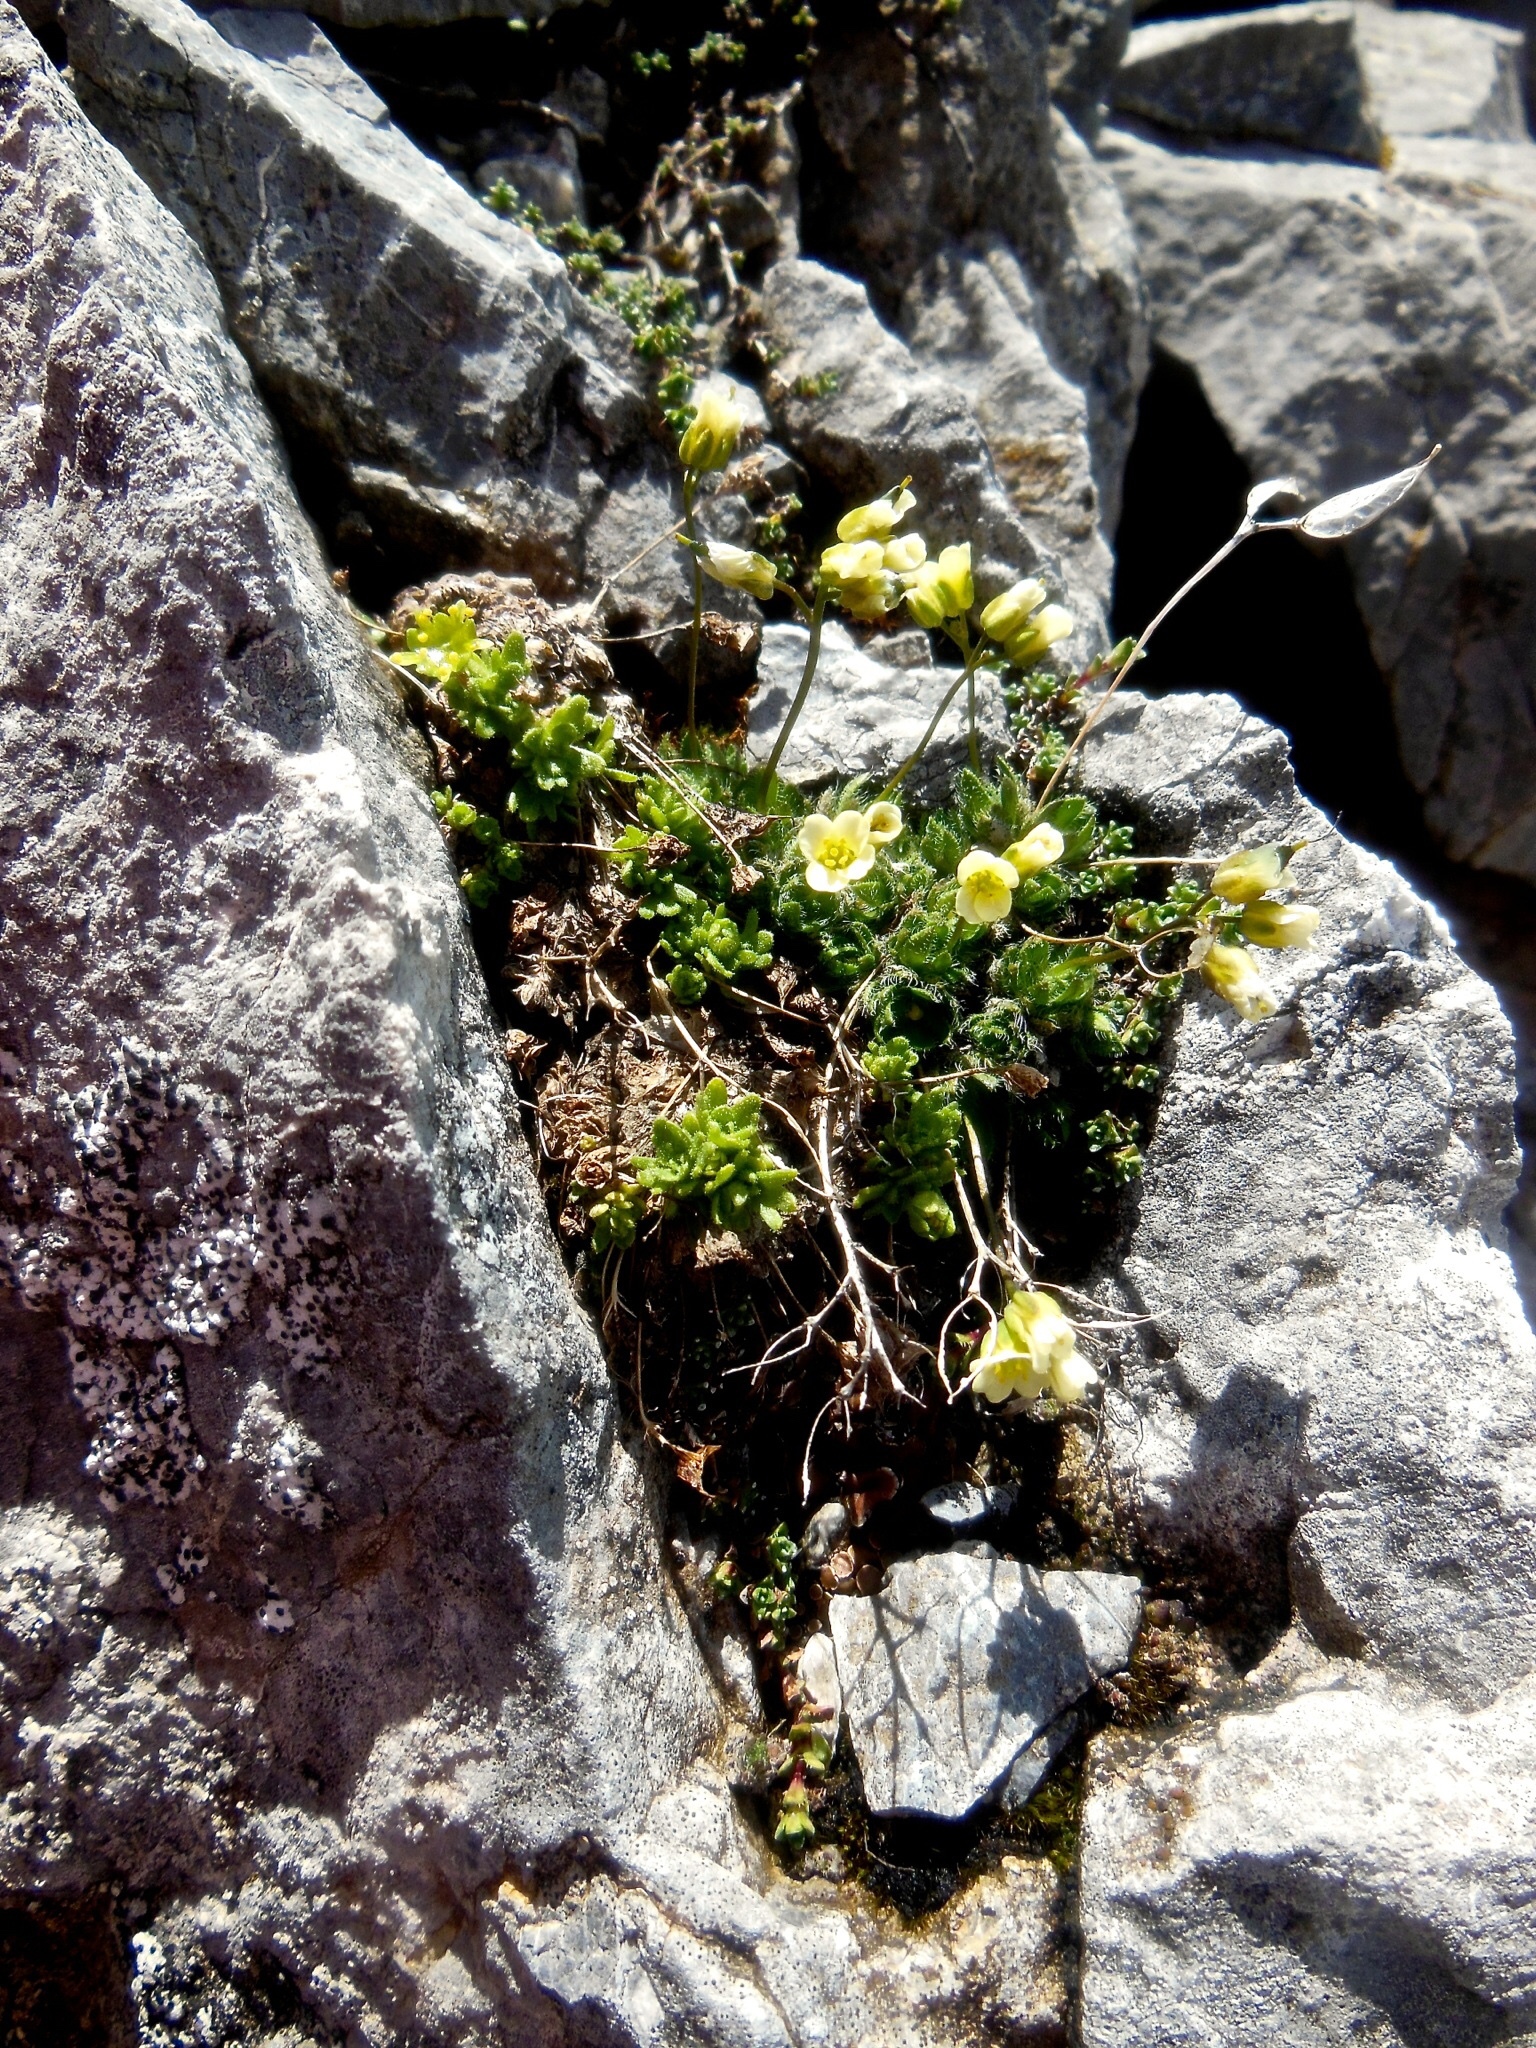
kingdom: Plantae
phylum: Tracheophyta
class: Magnoliopsida
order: Brassicales
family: Brassicaceae
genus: Draba
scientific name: Draba ladina
